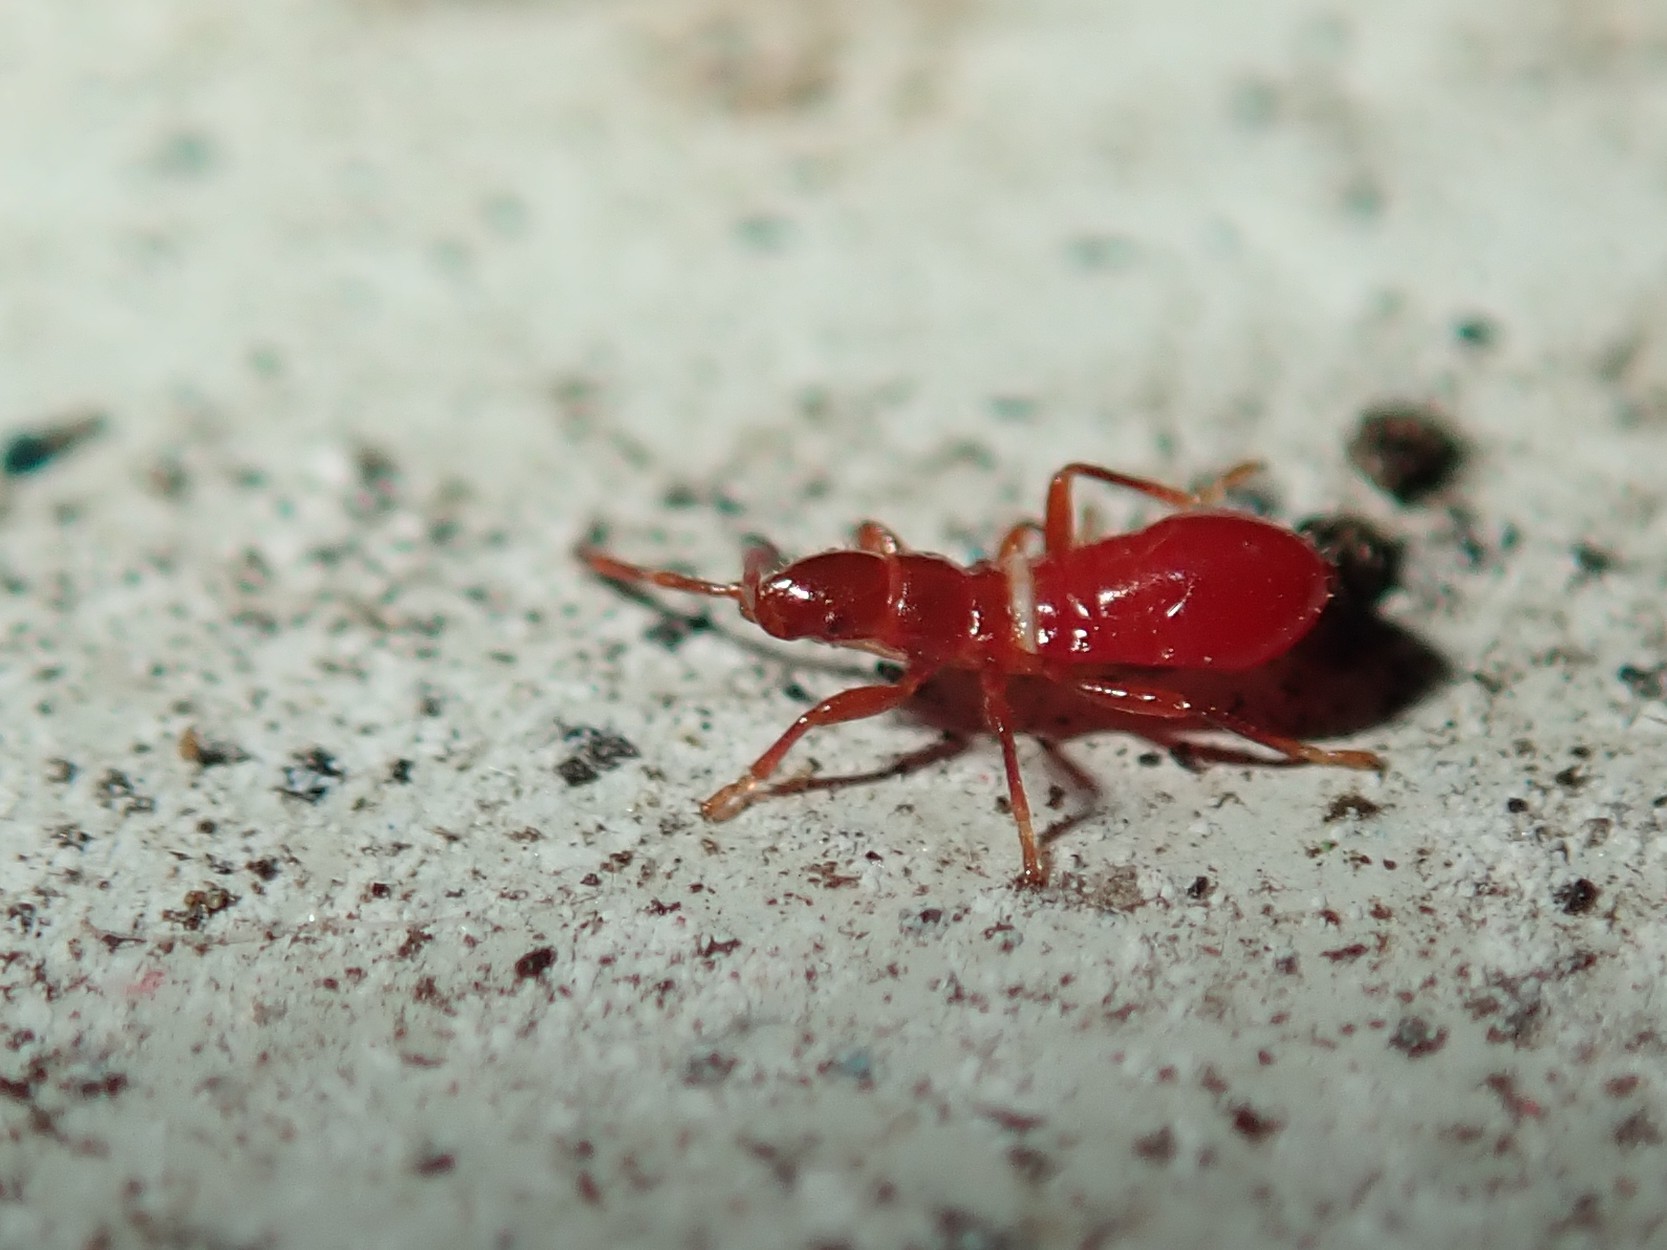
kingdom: Animalia
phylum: Arthropoda
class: Insecta
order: Hemiptera
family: Oxycarenidae
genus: Oxycarenus
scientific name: Oxycarenus lavaterae
